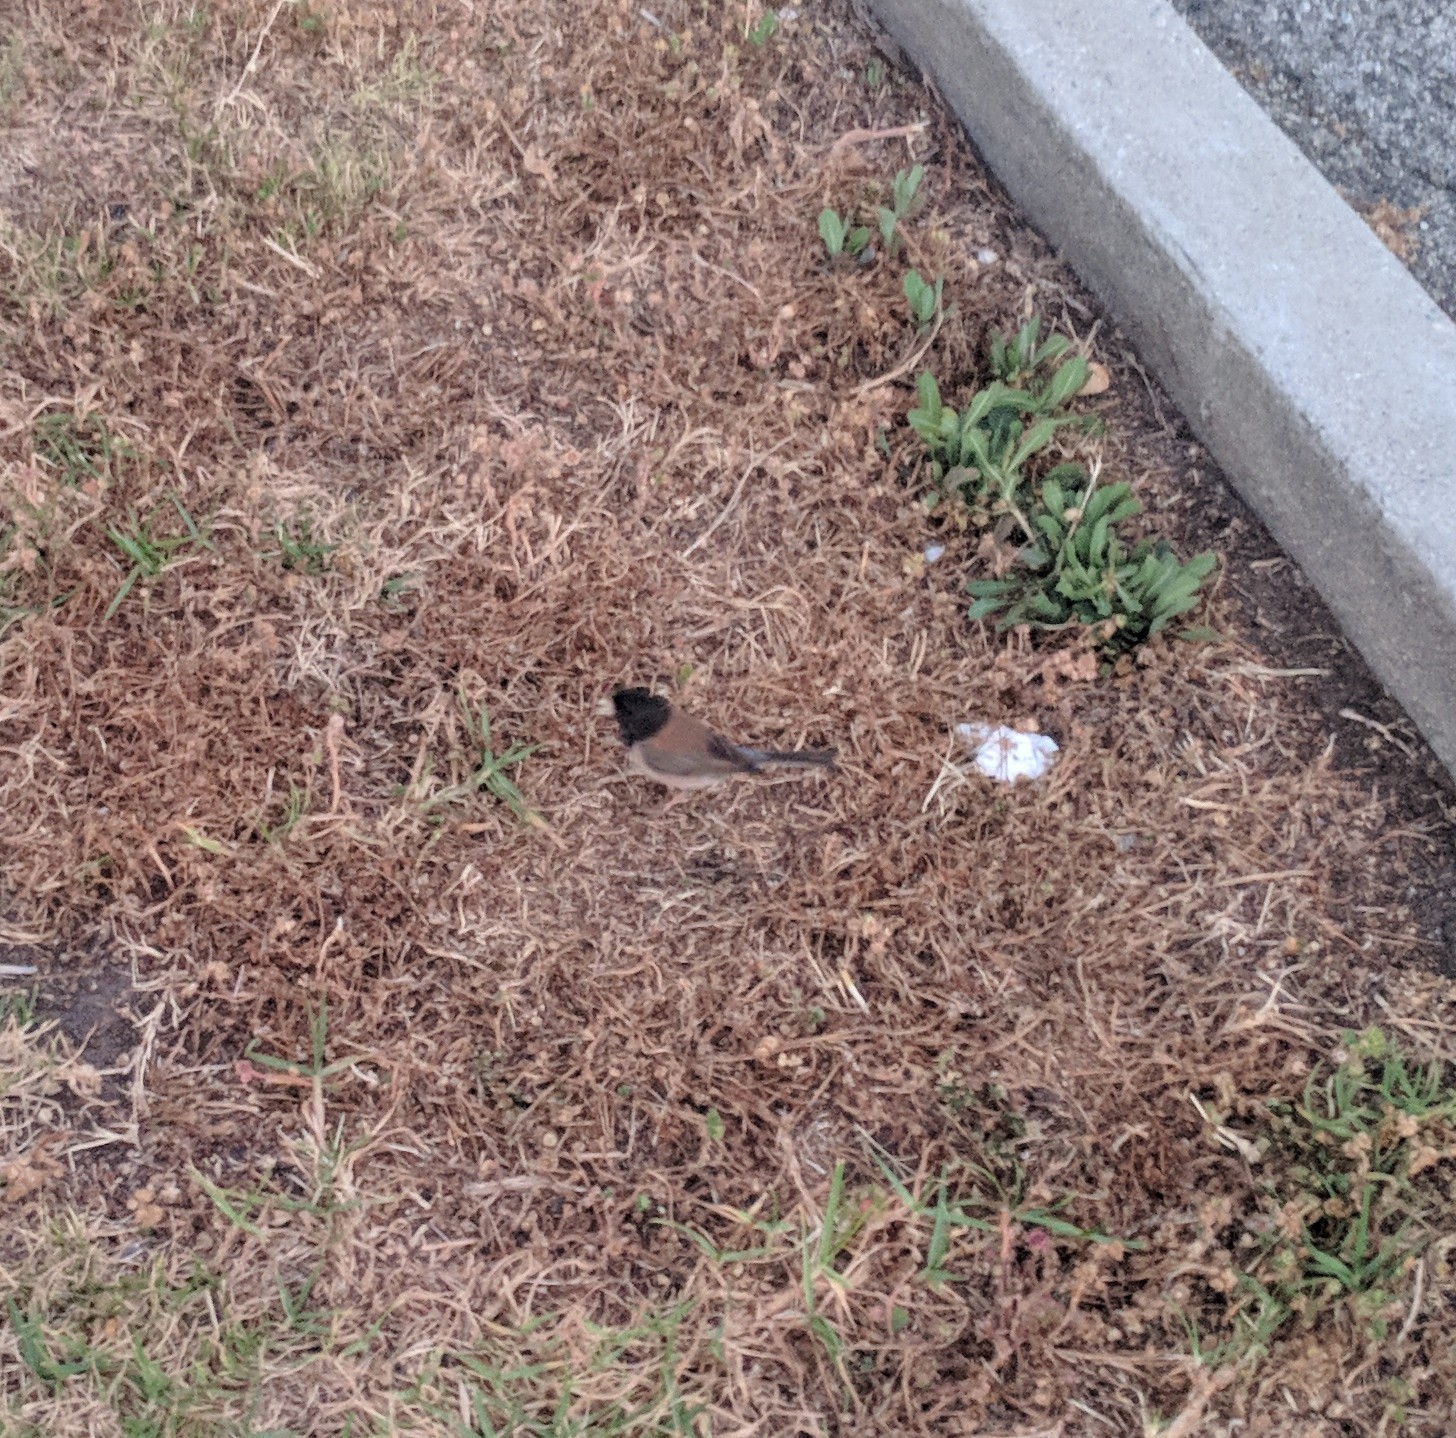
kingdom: Animalia
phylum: Chordata
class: Aves
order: Passeriformes
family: Passerellidae
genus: Junco
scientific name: Junco hyemalis
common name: Dark-eyed junco
